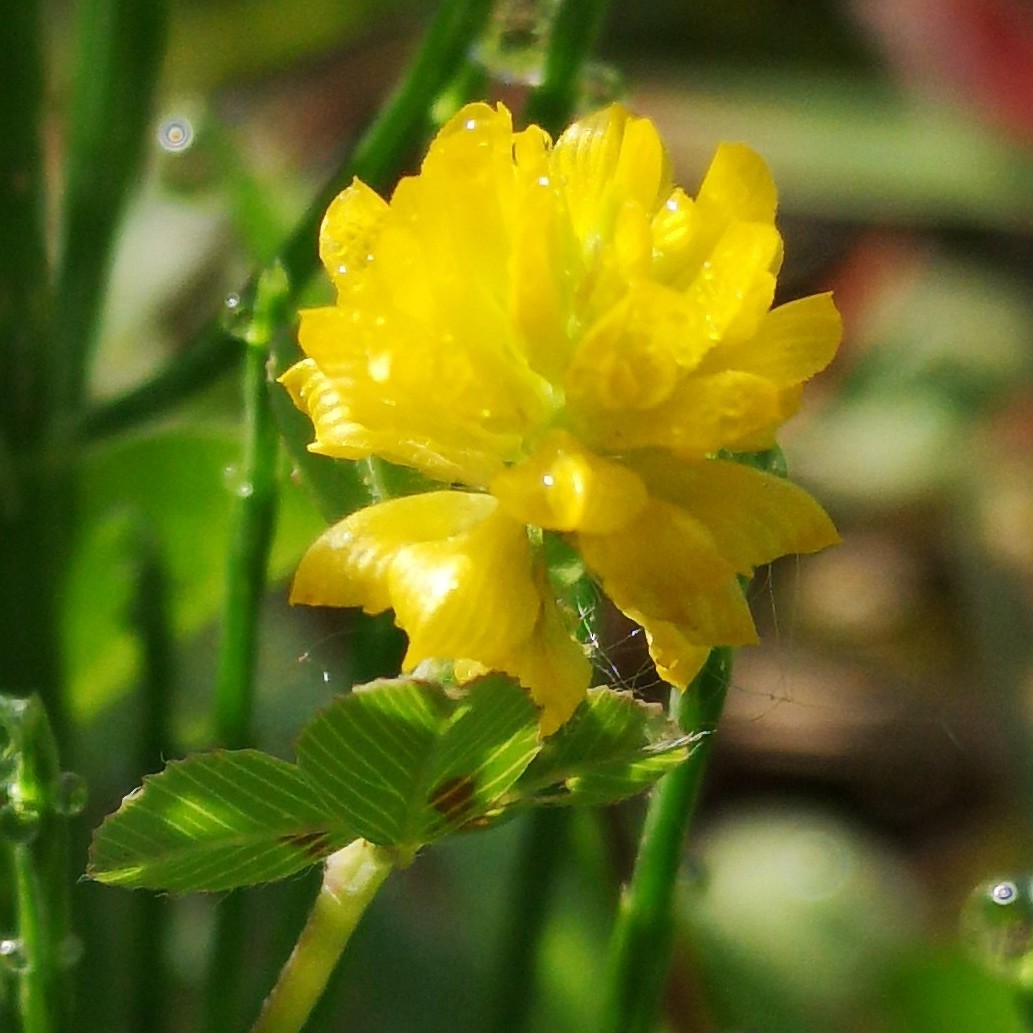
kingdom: Plantae
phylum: Tracheophyta
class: Magnoliopsida
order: Fabales
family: Fabaceae
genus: Trifolium
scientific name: Trifolium campestre
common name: Field clover
